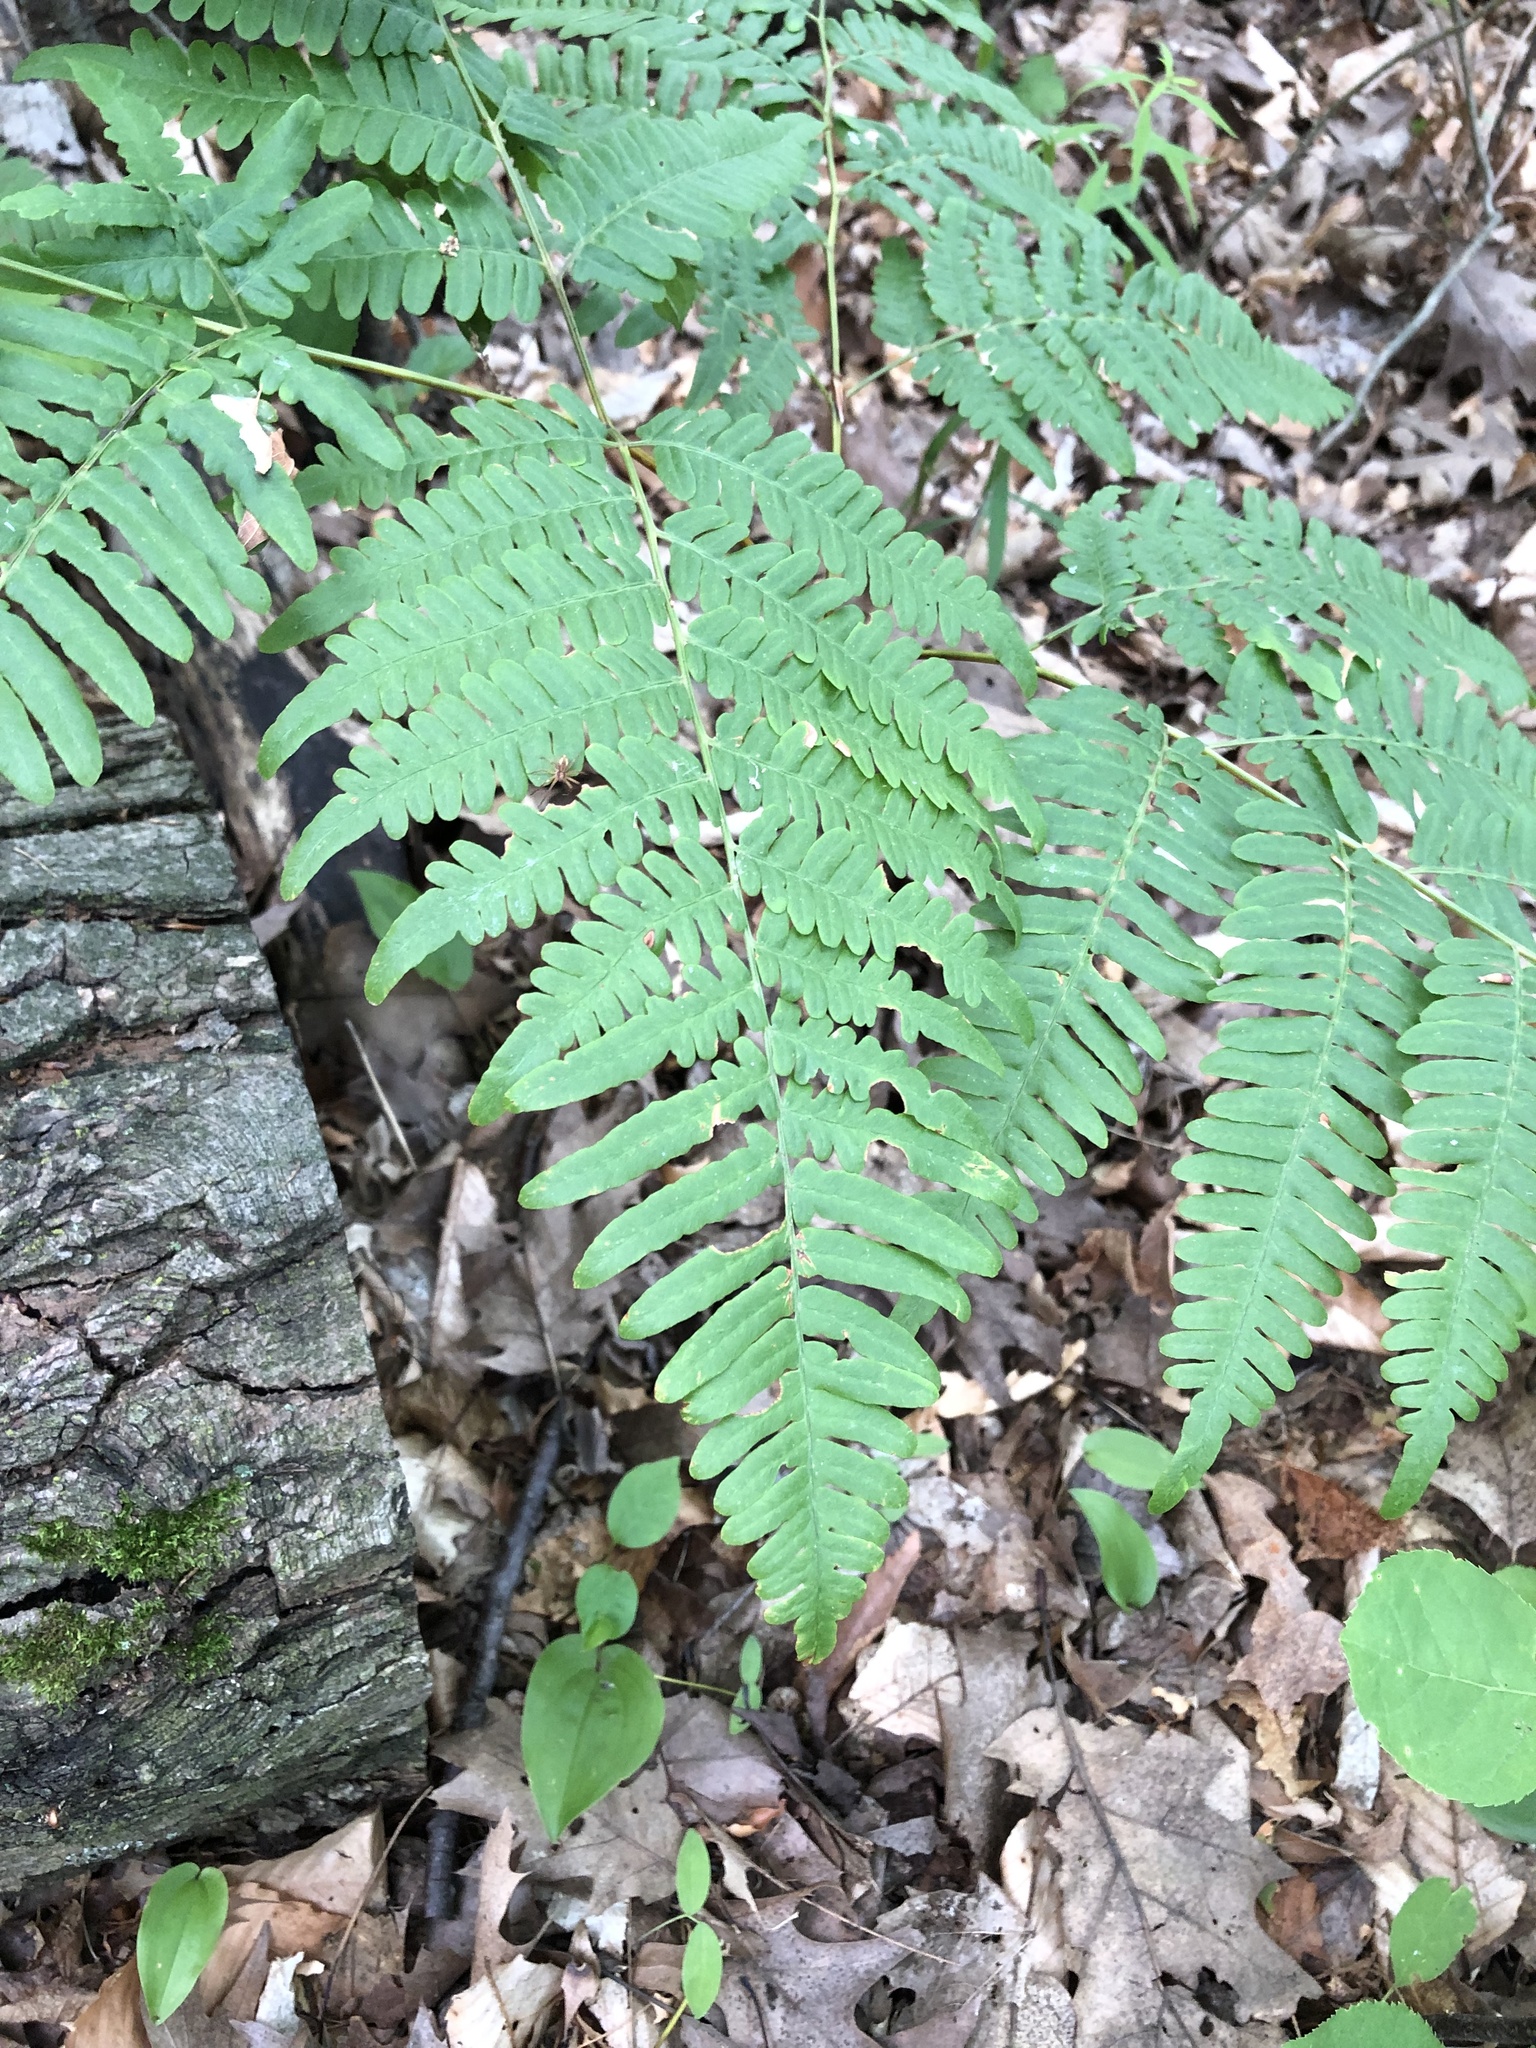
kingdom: Plantae
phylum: Tracheophyta
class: Polypodiopsida
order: Polypodiales
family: Dennstaedtiaceae
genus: Pteridium
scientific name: Pteridium aquilinum
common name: Bracken
